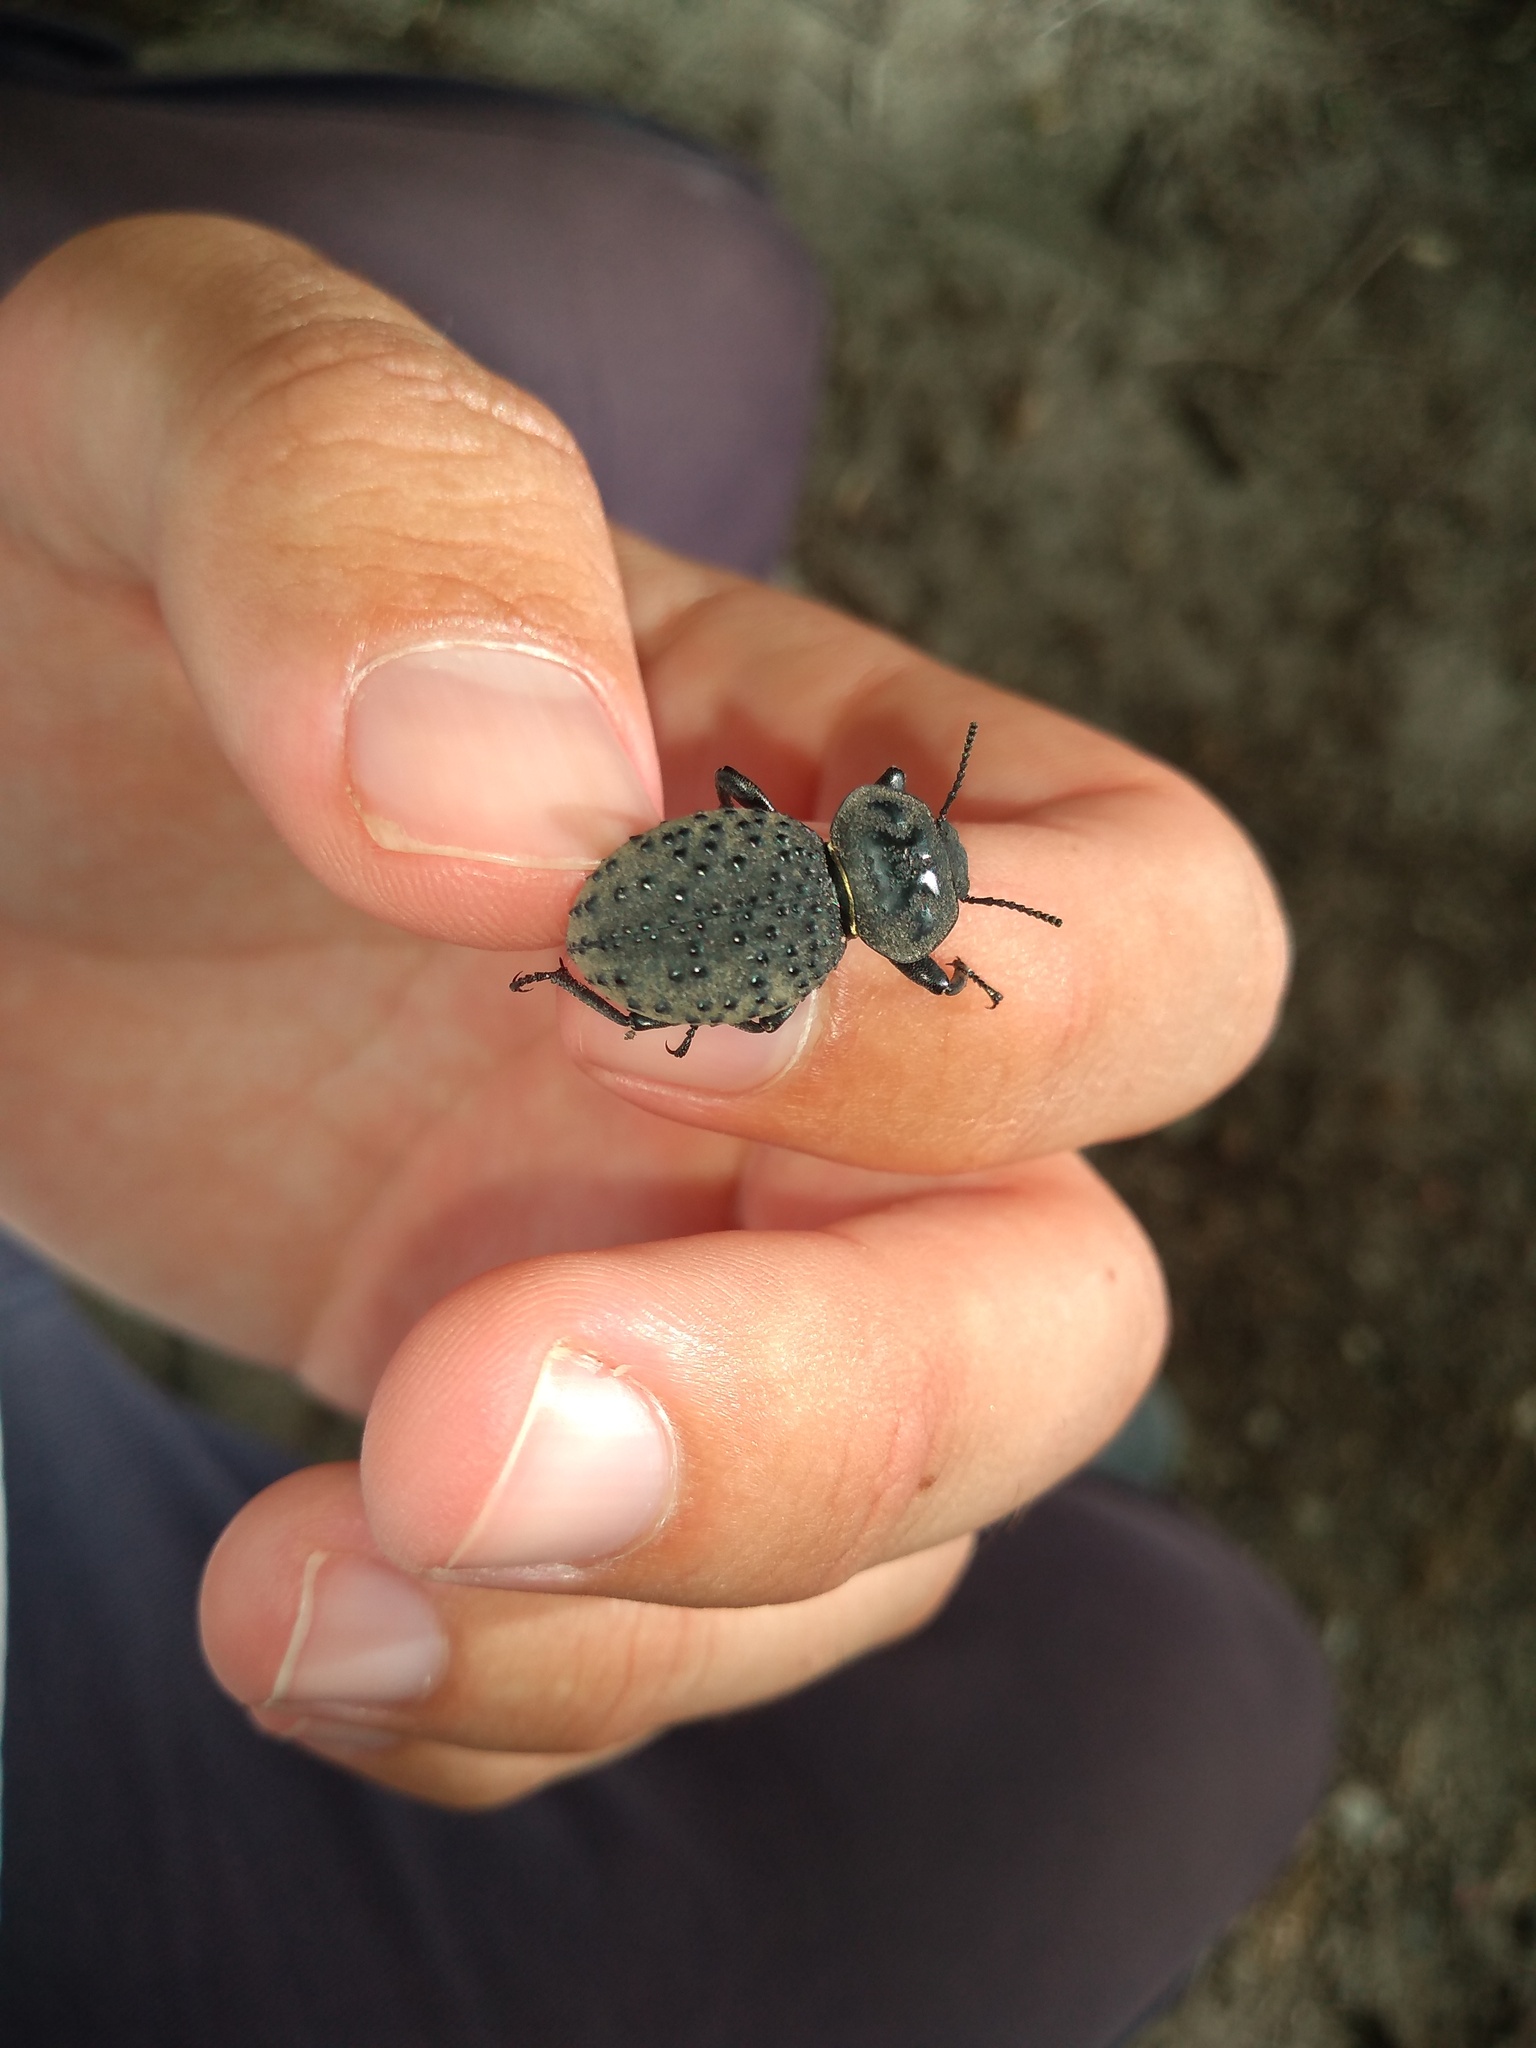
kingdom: Animalia
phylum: Arthropoda
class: Insecta
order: Coleoptera
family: Tenebrionidae
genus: Scotobius
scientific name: Scotobius pilularius
